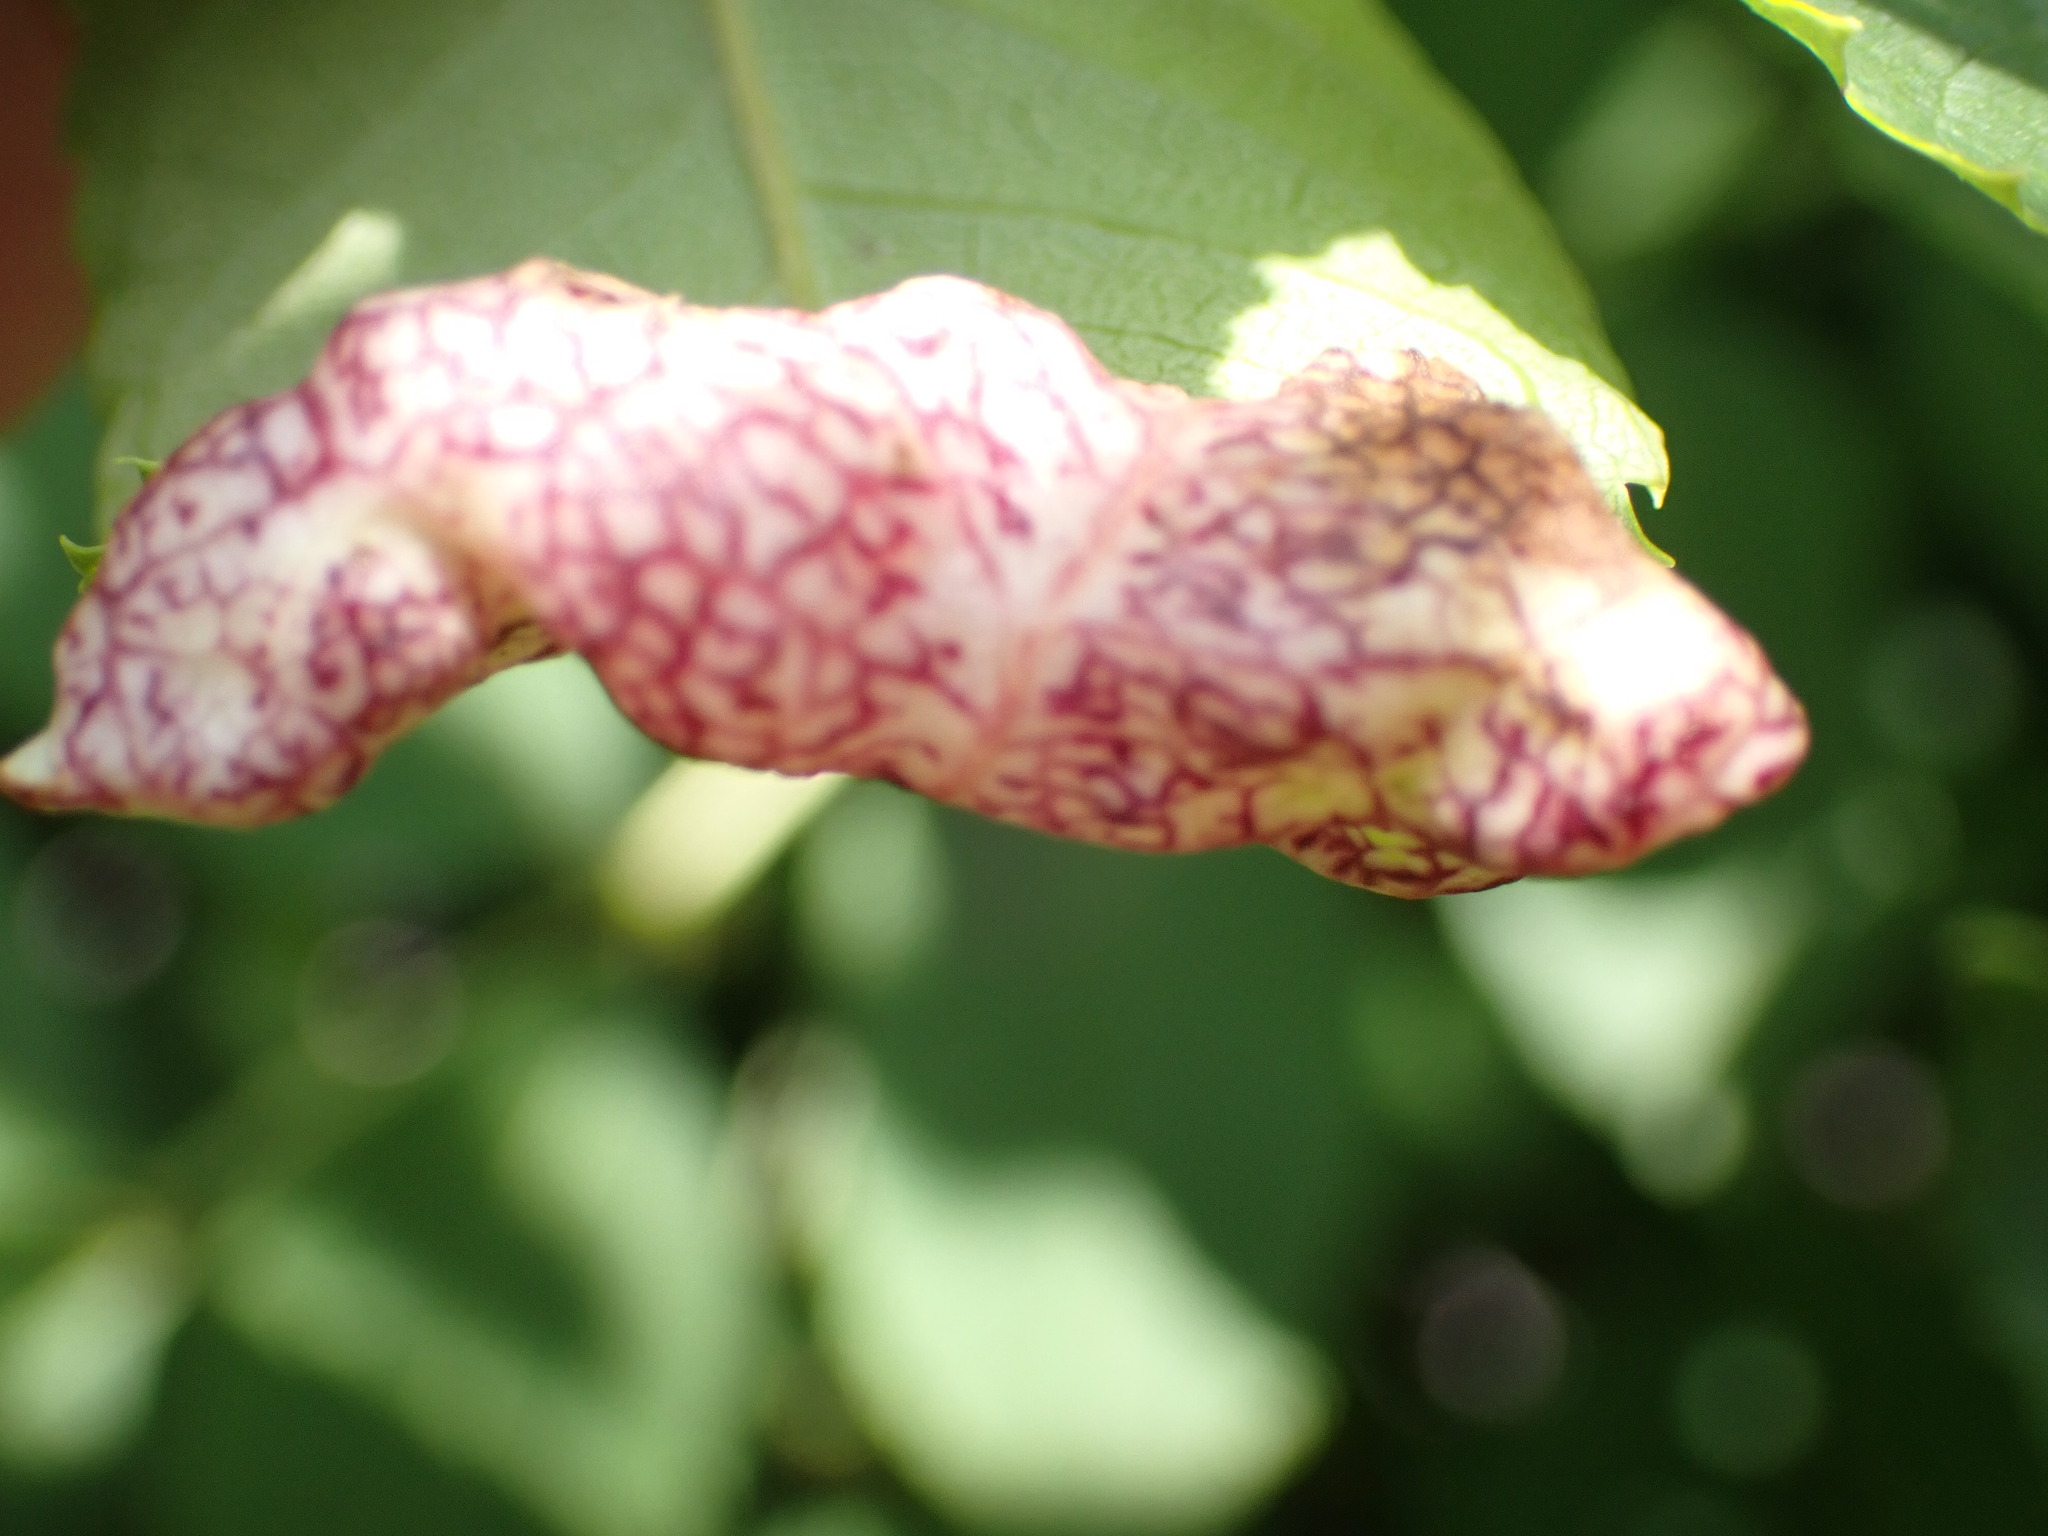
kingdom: Animalia
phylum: Arthropoda
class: Insecta
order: Hemiptera
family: Liviidae
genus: Psyllopsis
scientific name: Psyllopsis fraxini
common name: Jumping plant louse
